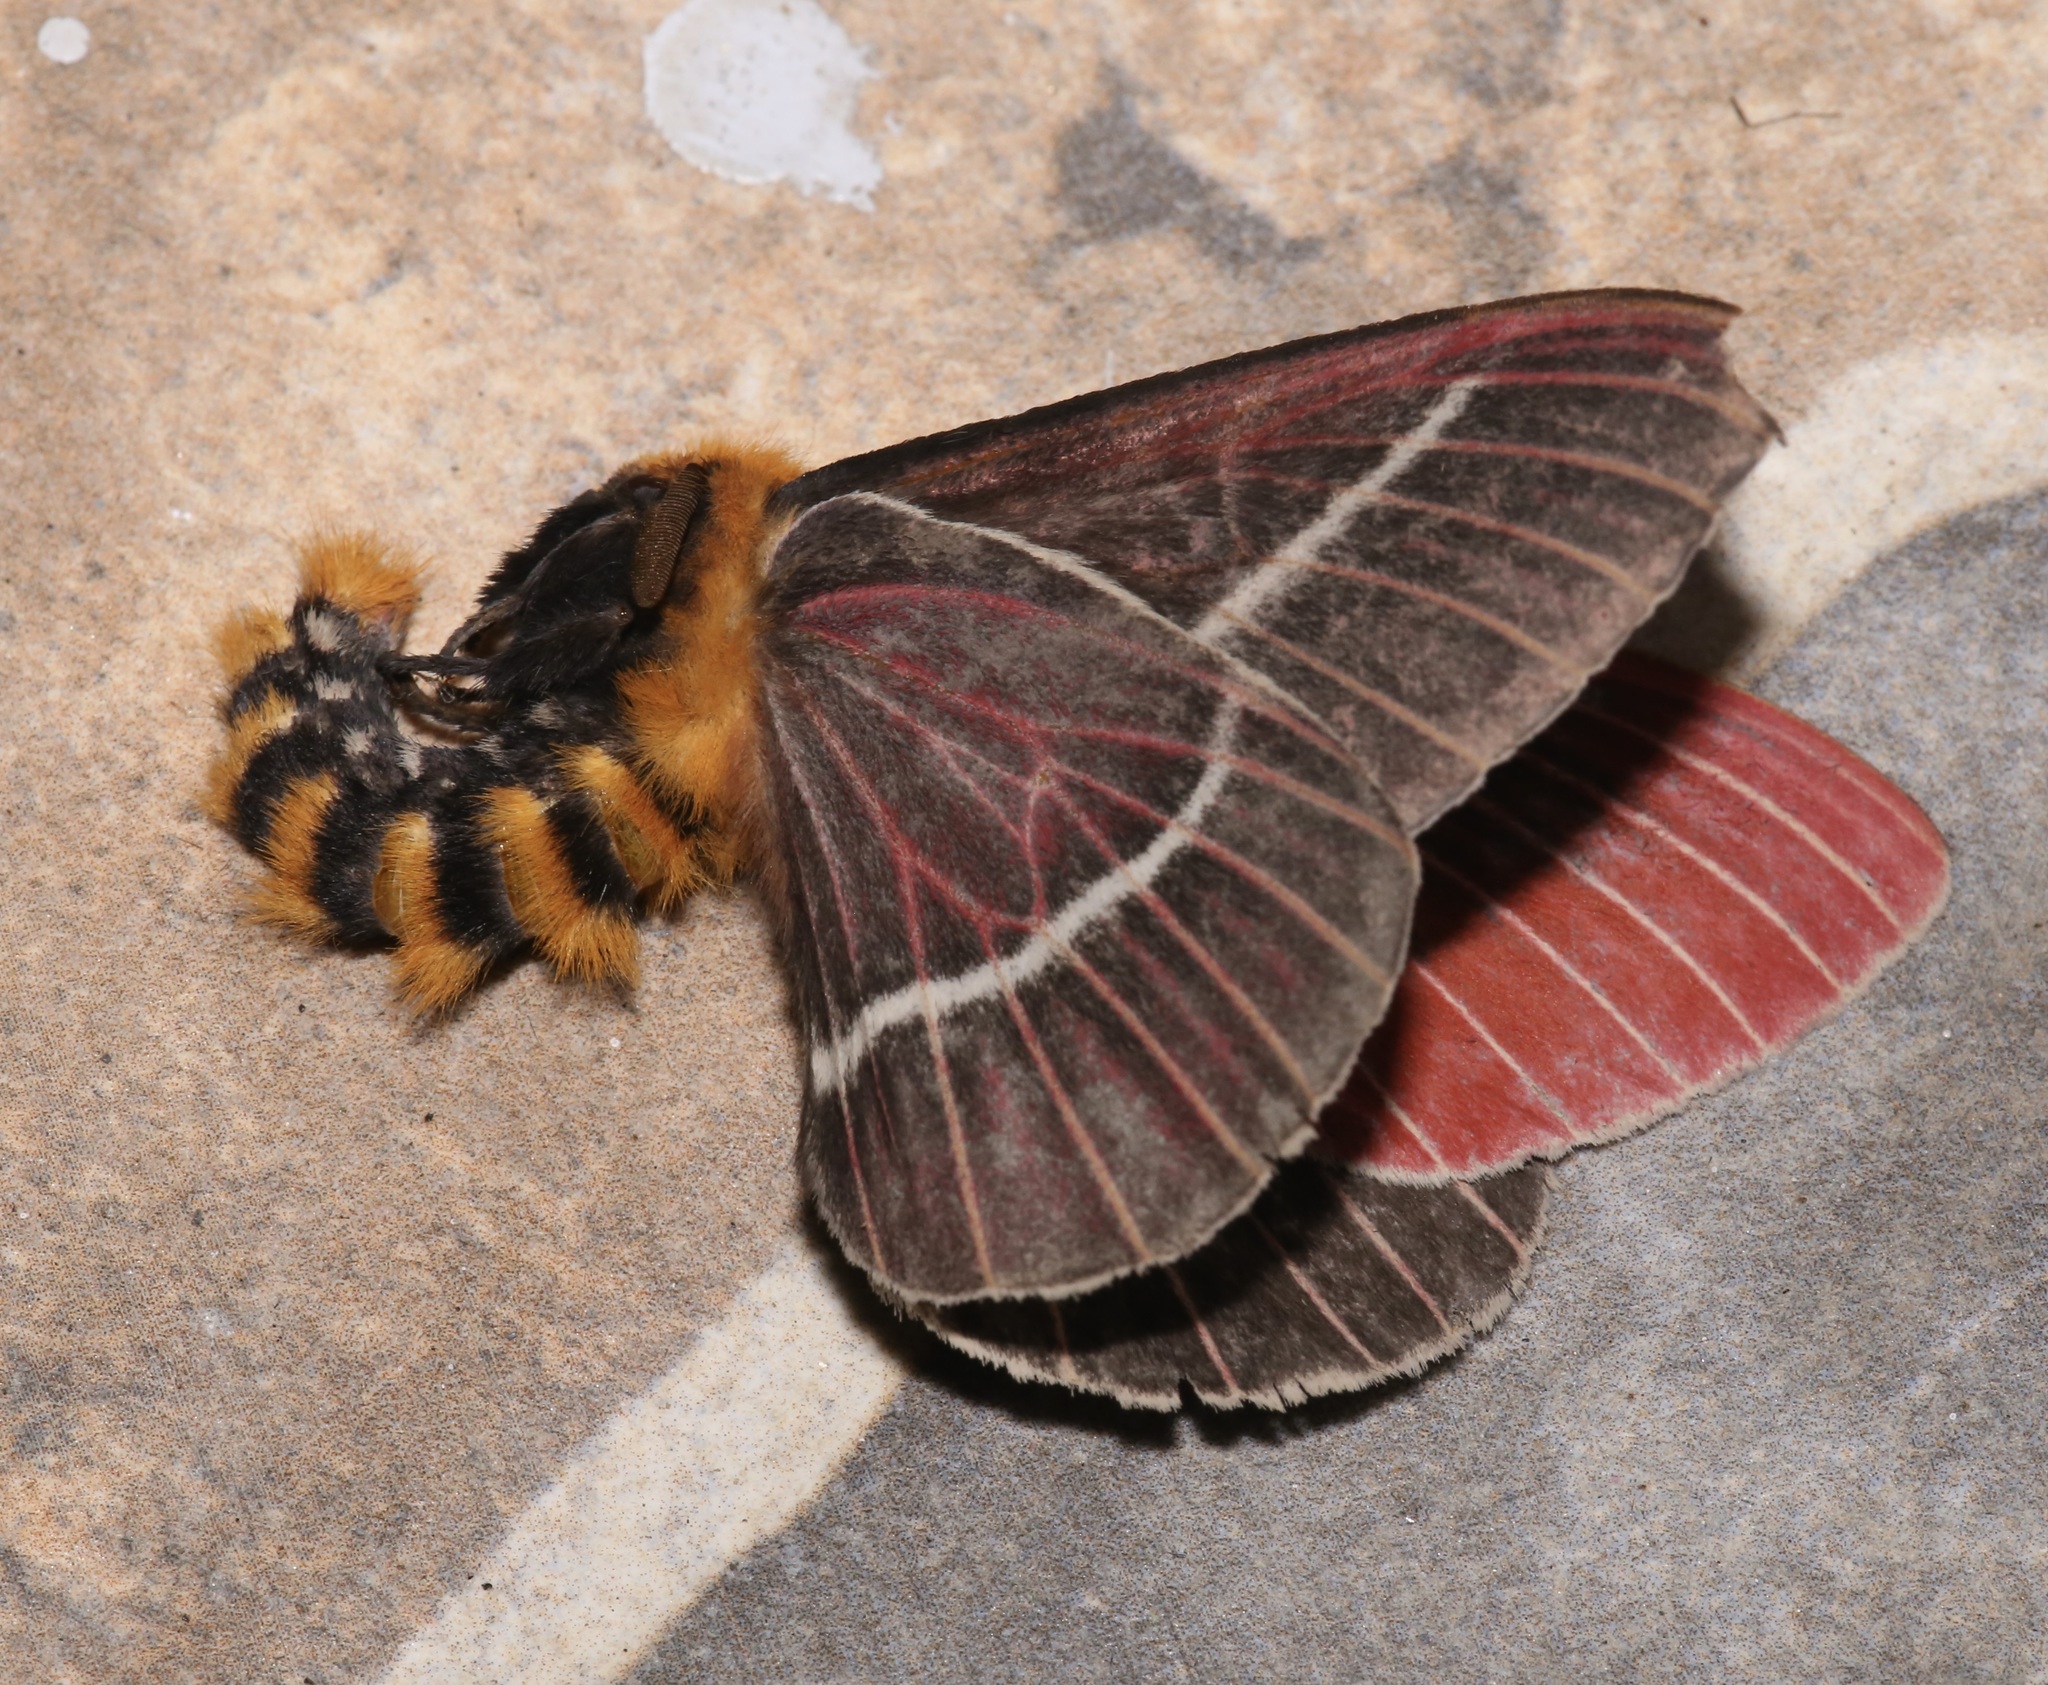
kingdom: Animalia
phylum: Arthropoda
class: Insecta
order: Lepidoptera
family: Saturniidae
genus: Pseudodirphia
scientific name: Pseudodirphia menander
